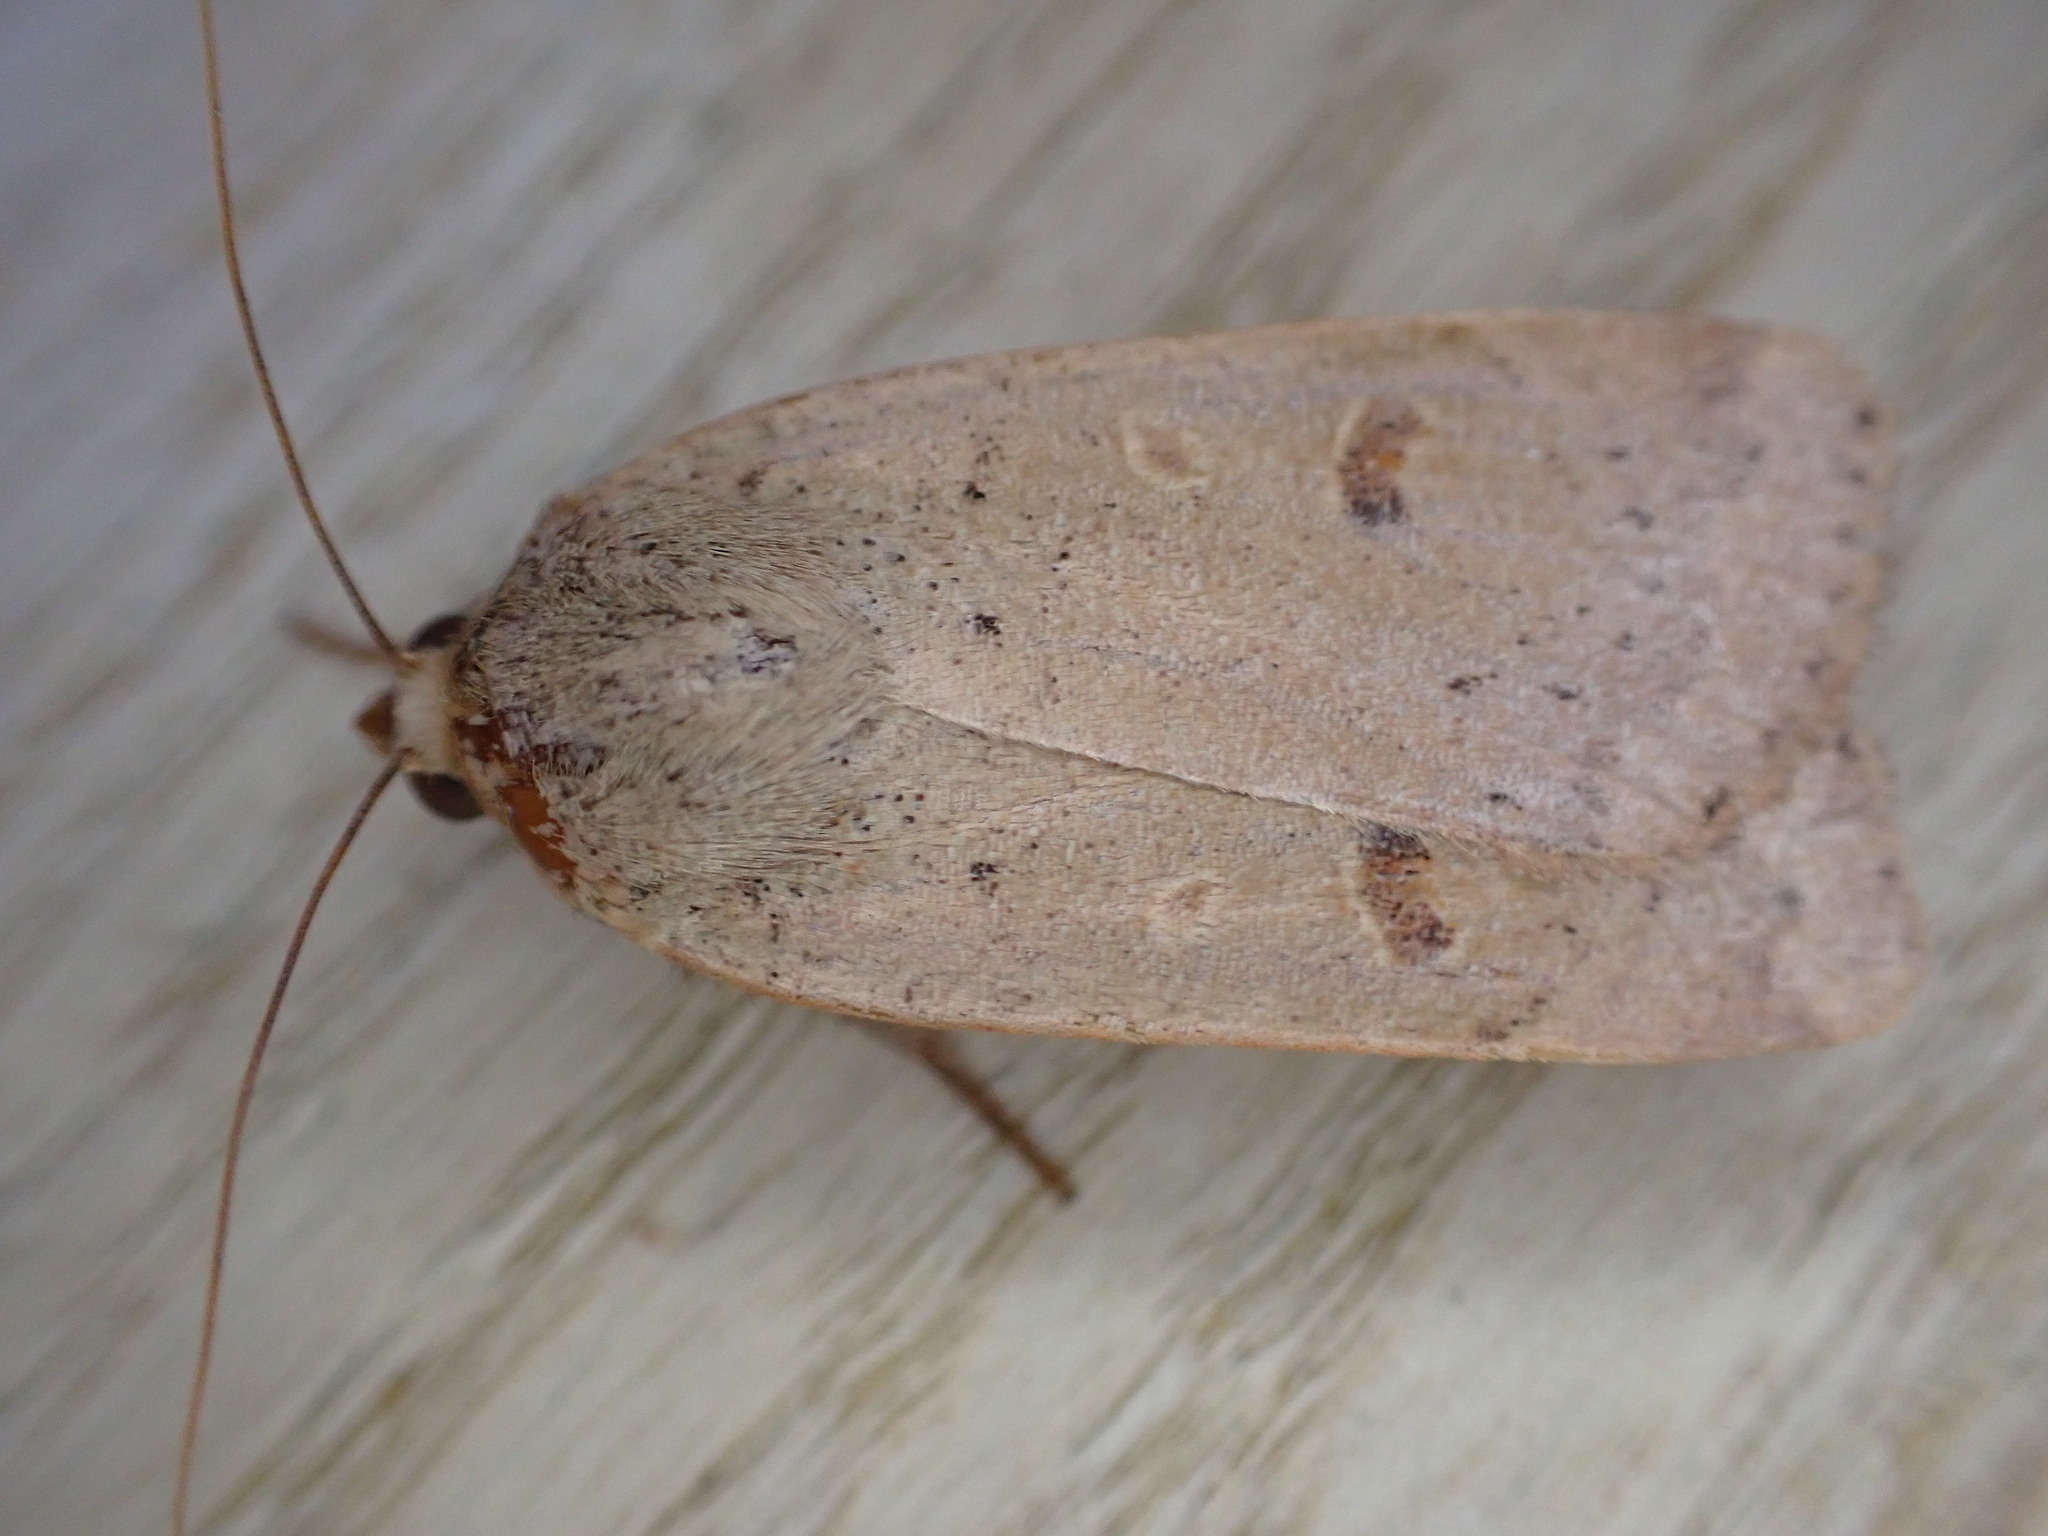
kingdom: Animalia
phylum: Arthropoda
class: Insecta
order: Lepidoptera
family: Noctuidae
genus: Noctua
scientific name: Noctua comes
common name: Lesser yellow underwing
